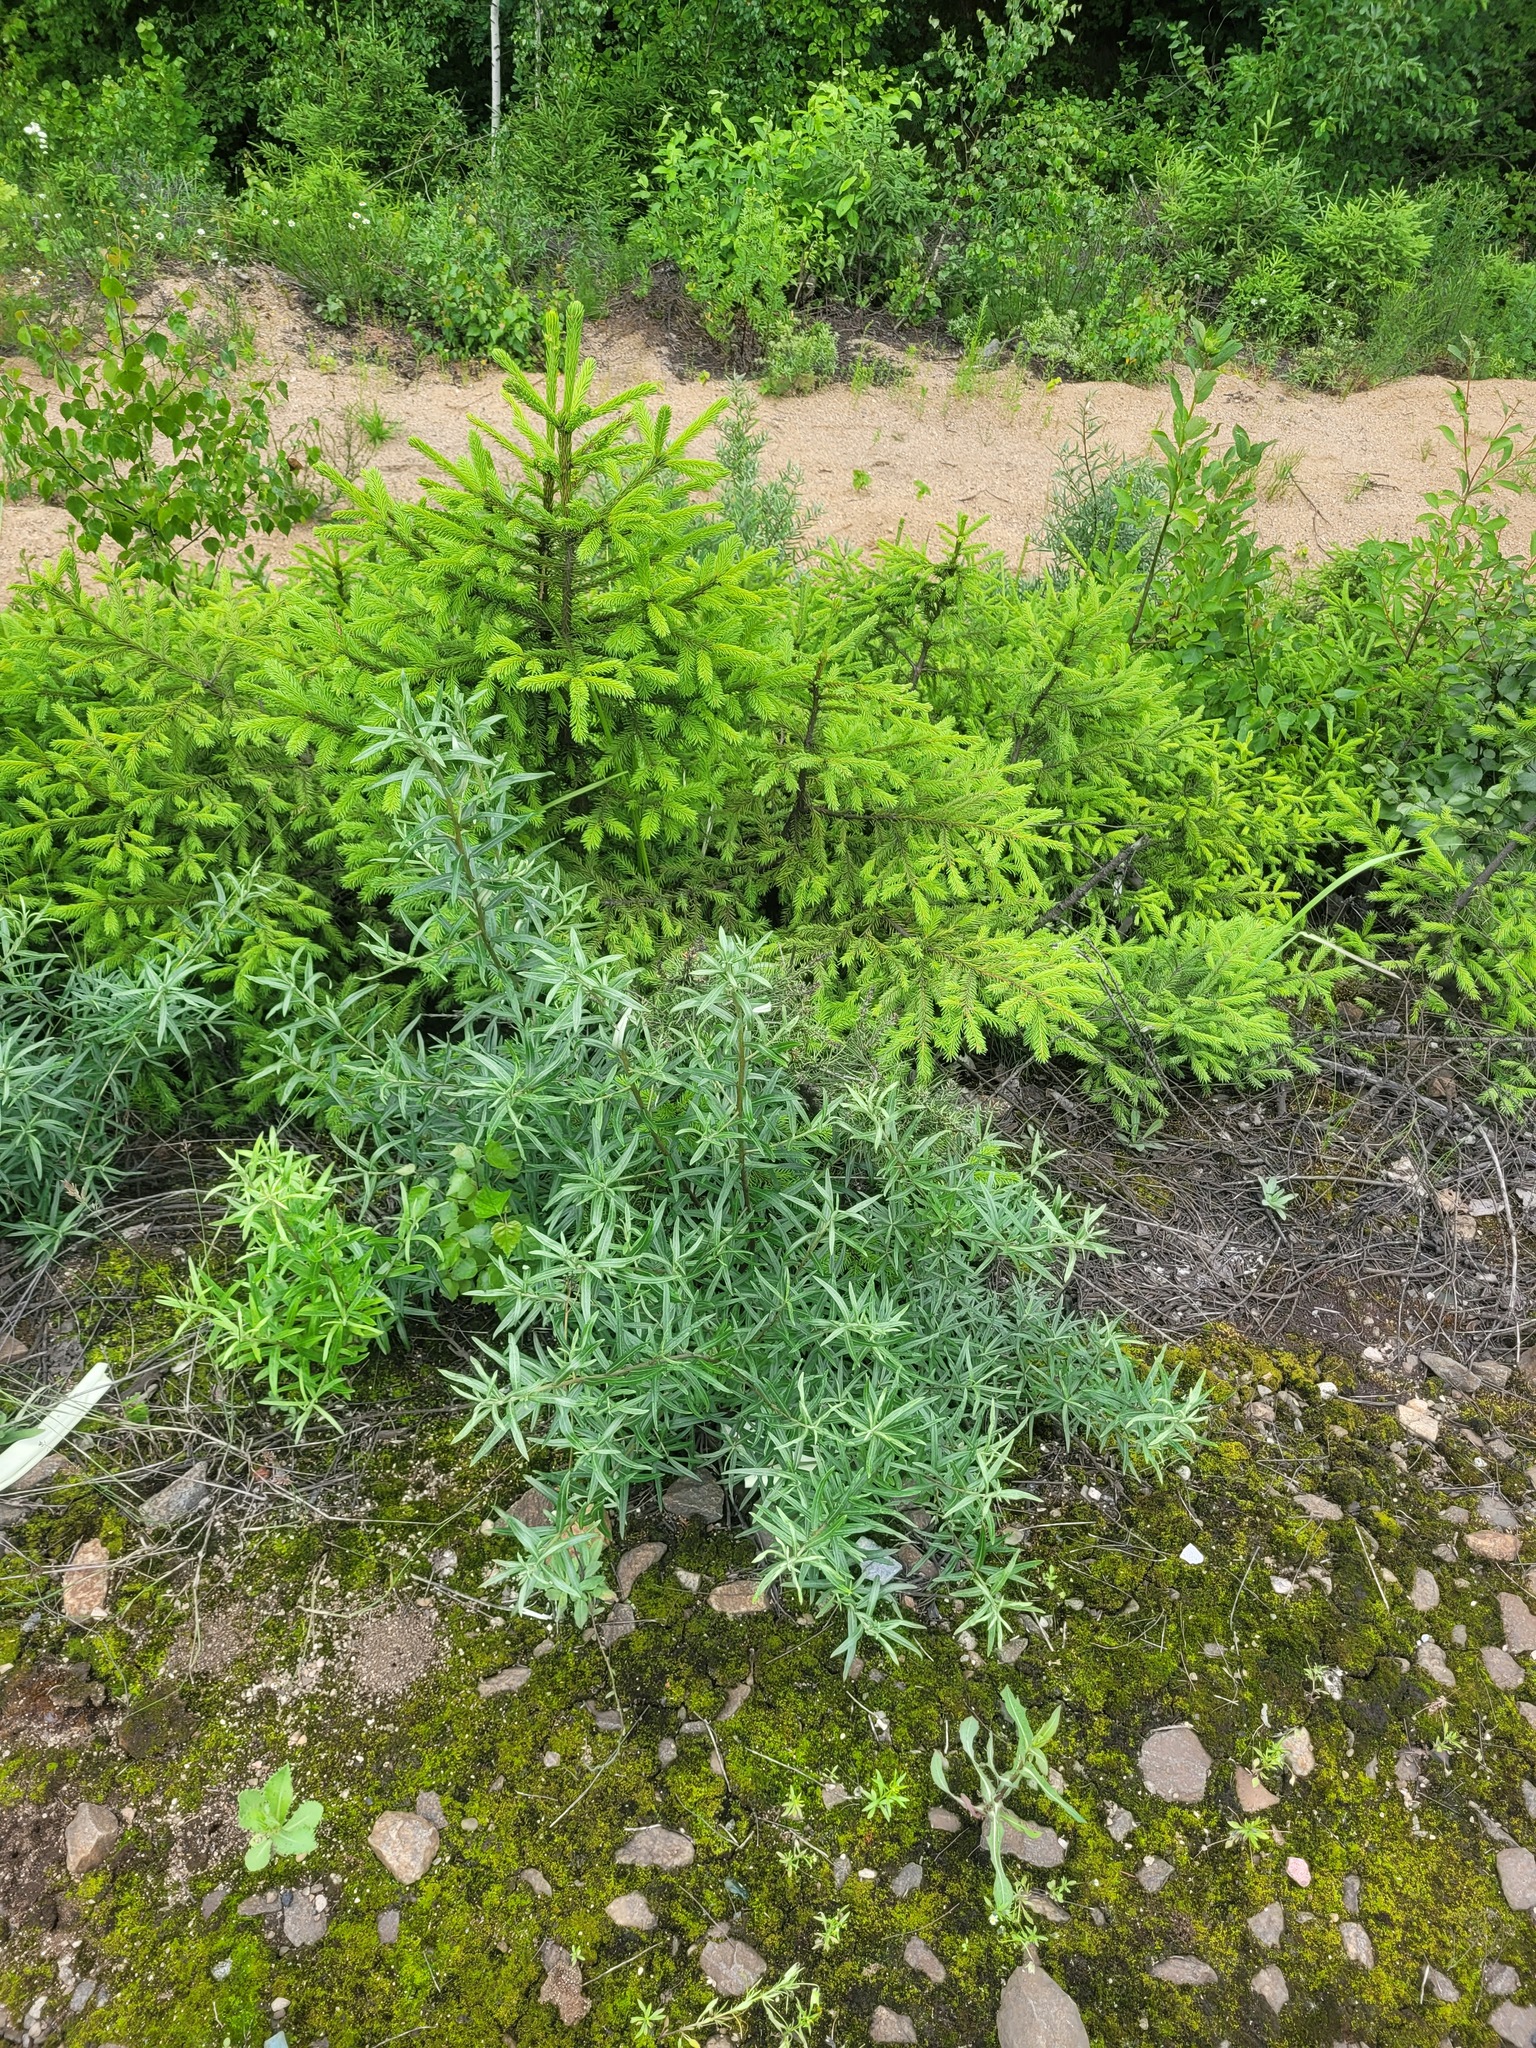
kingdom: Plantae
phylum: Tracheophyta
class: Magnoliopsida
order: Rosales
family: Elaeagnaceae
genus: Hippophae
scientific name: Hippophae rhamnoides
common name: Sea-buckthorn
